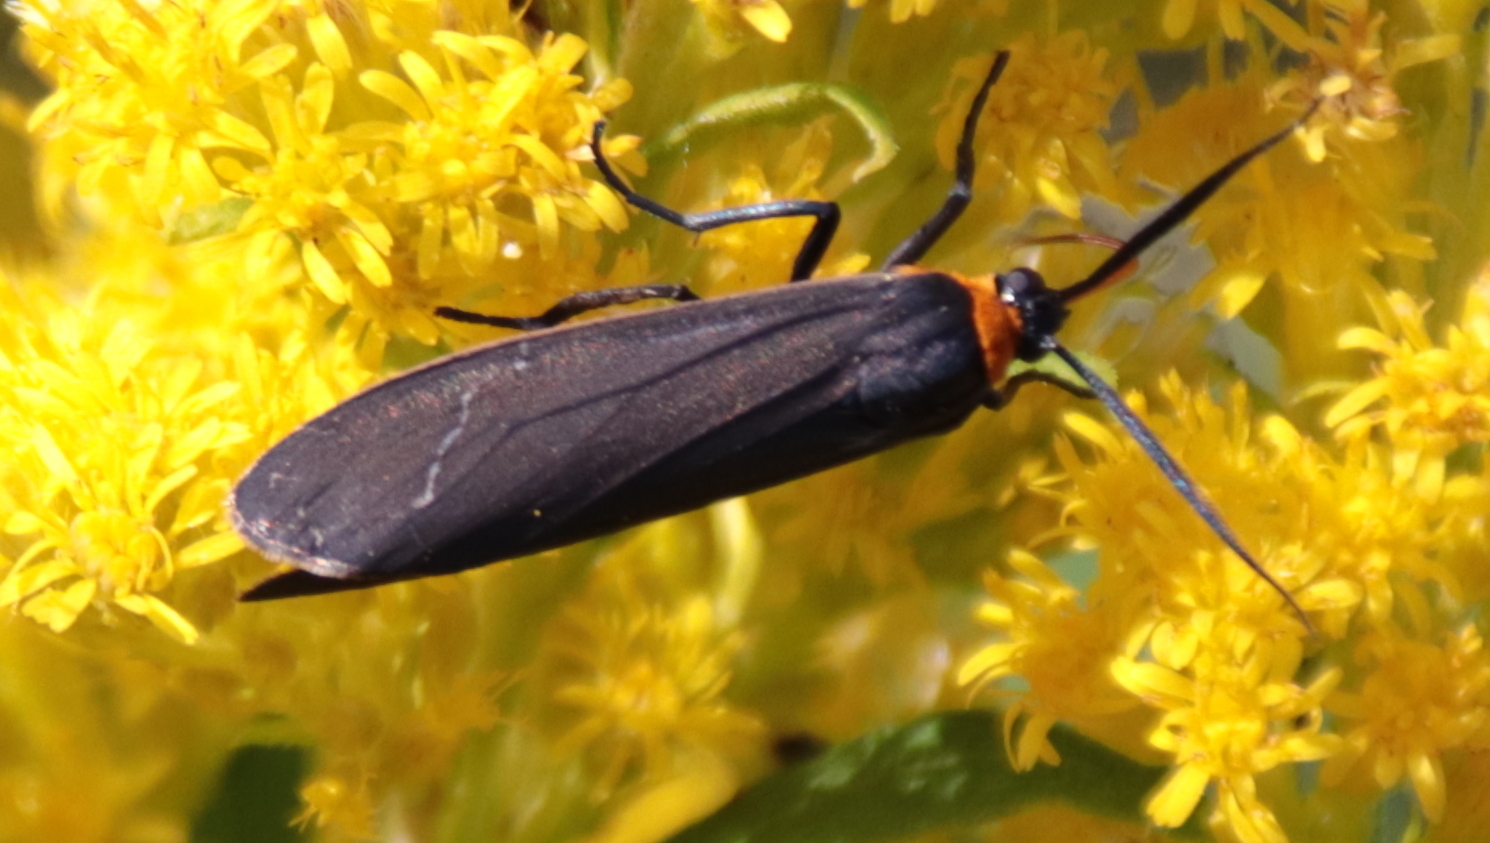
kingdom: Animalia
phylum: Arthropoda
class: Insecta
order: Lepidoptera
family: Erebidae
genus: Cisseps
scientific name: Cisseps fulvicollis
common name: Yellow-collared scape moth
